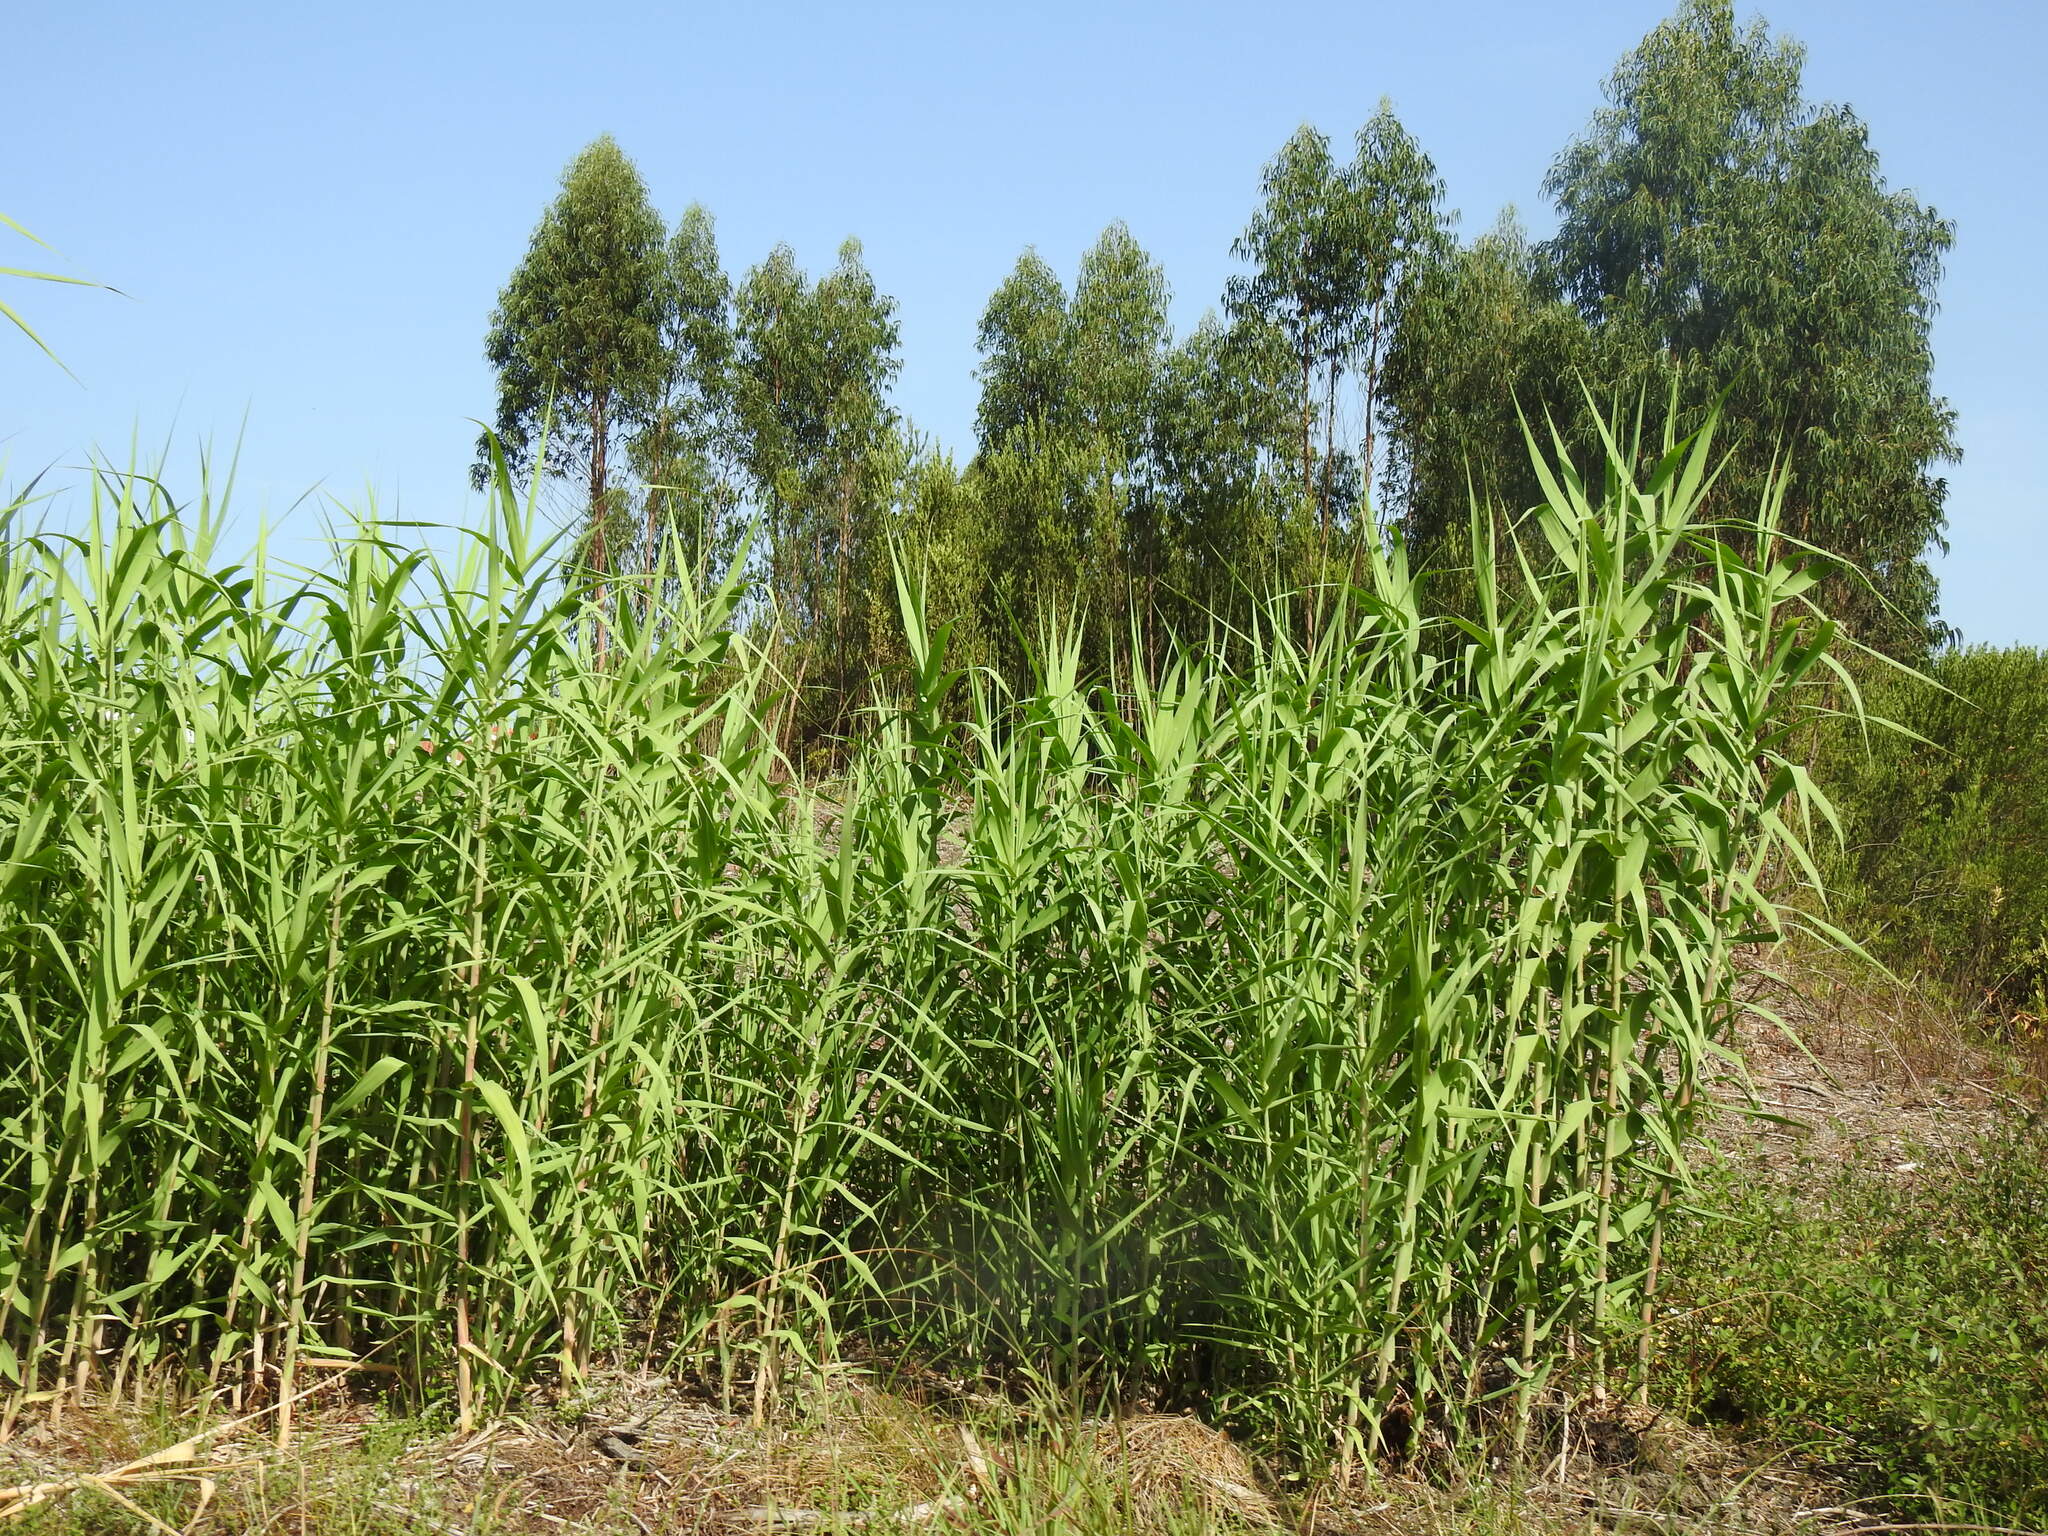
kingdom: Plantae
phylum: Tracheophyta
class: Liliopsida
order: Poales
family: Poaceae
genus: Arundo
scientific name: Arundo donax
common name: Giant reed
